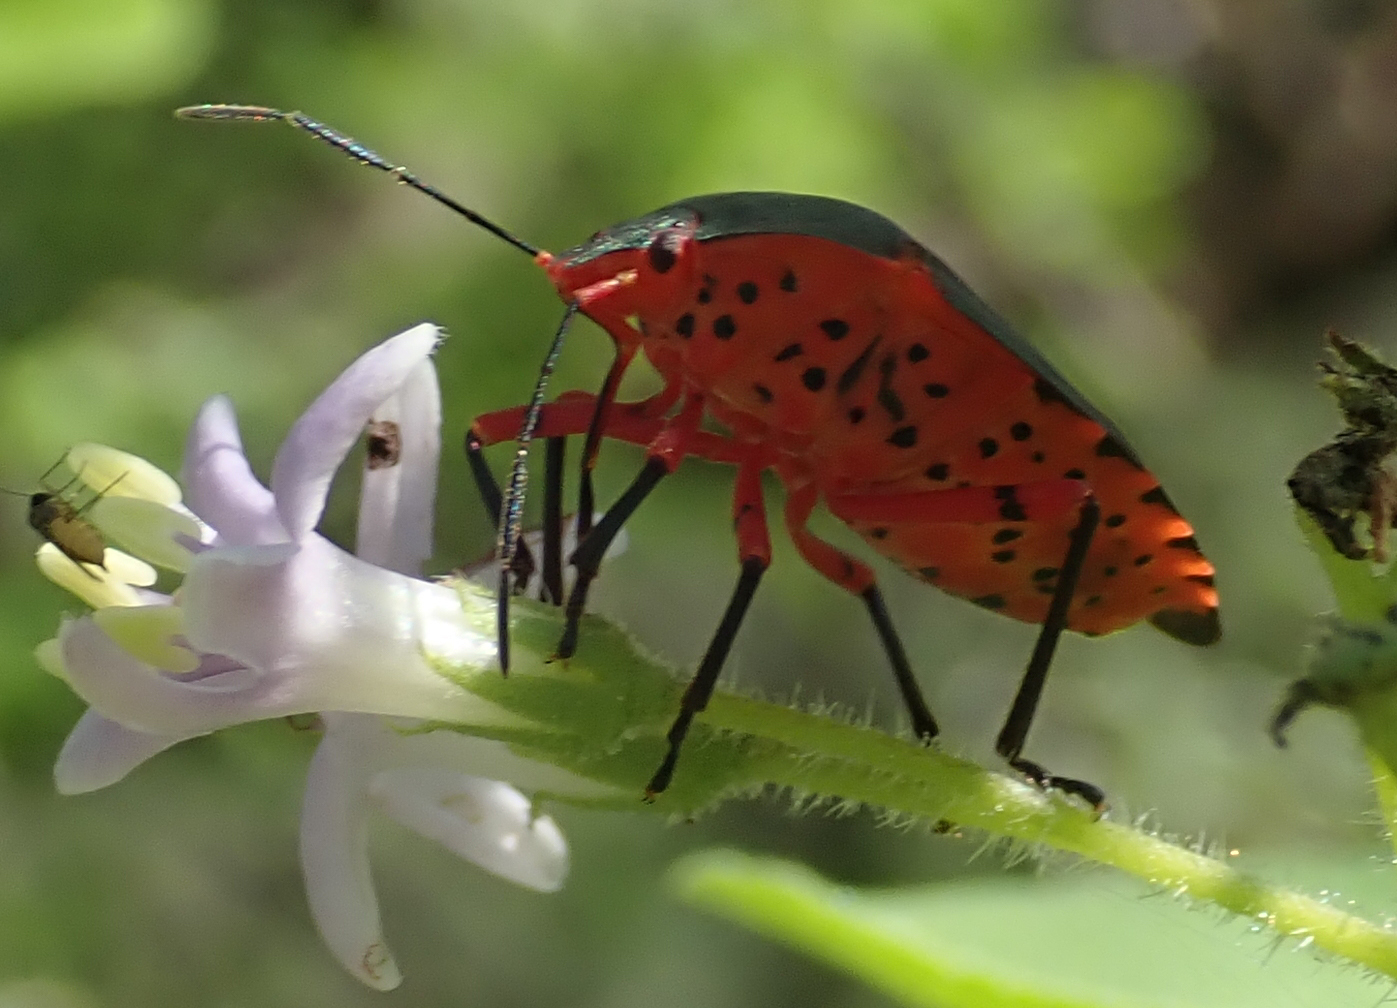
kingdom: Animalia
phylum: Arthropoda
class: Insecta
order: Hemiptera
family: Pentatomidae
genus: Caura
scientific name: Caura rufiventris
